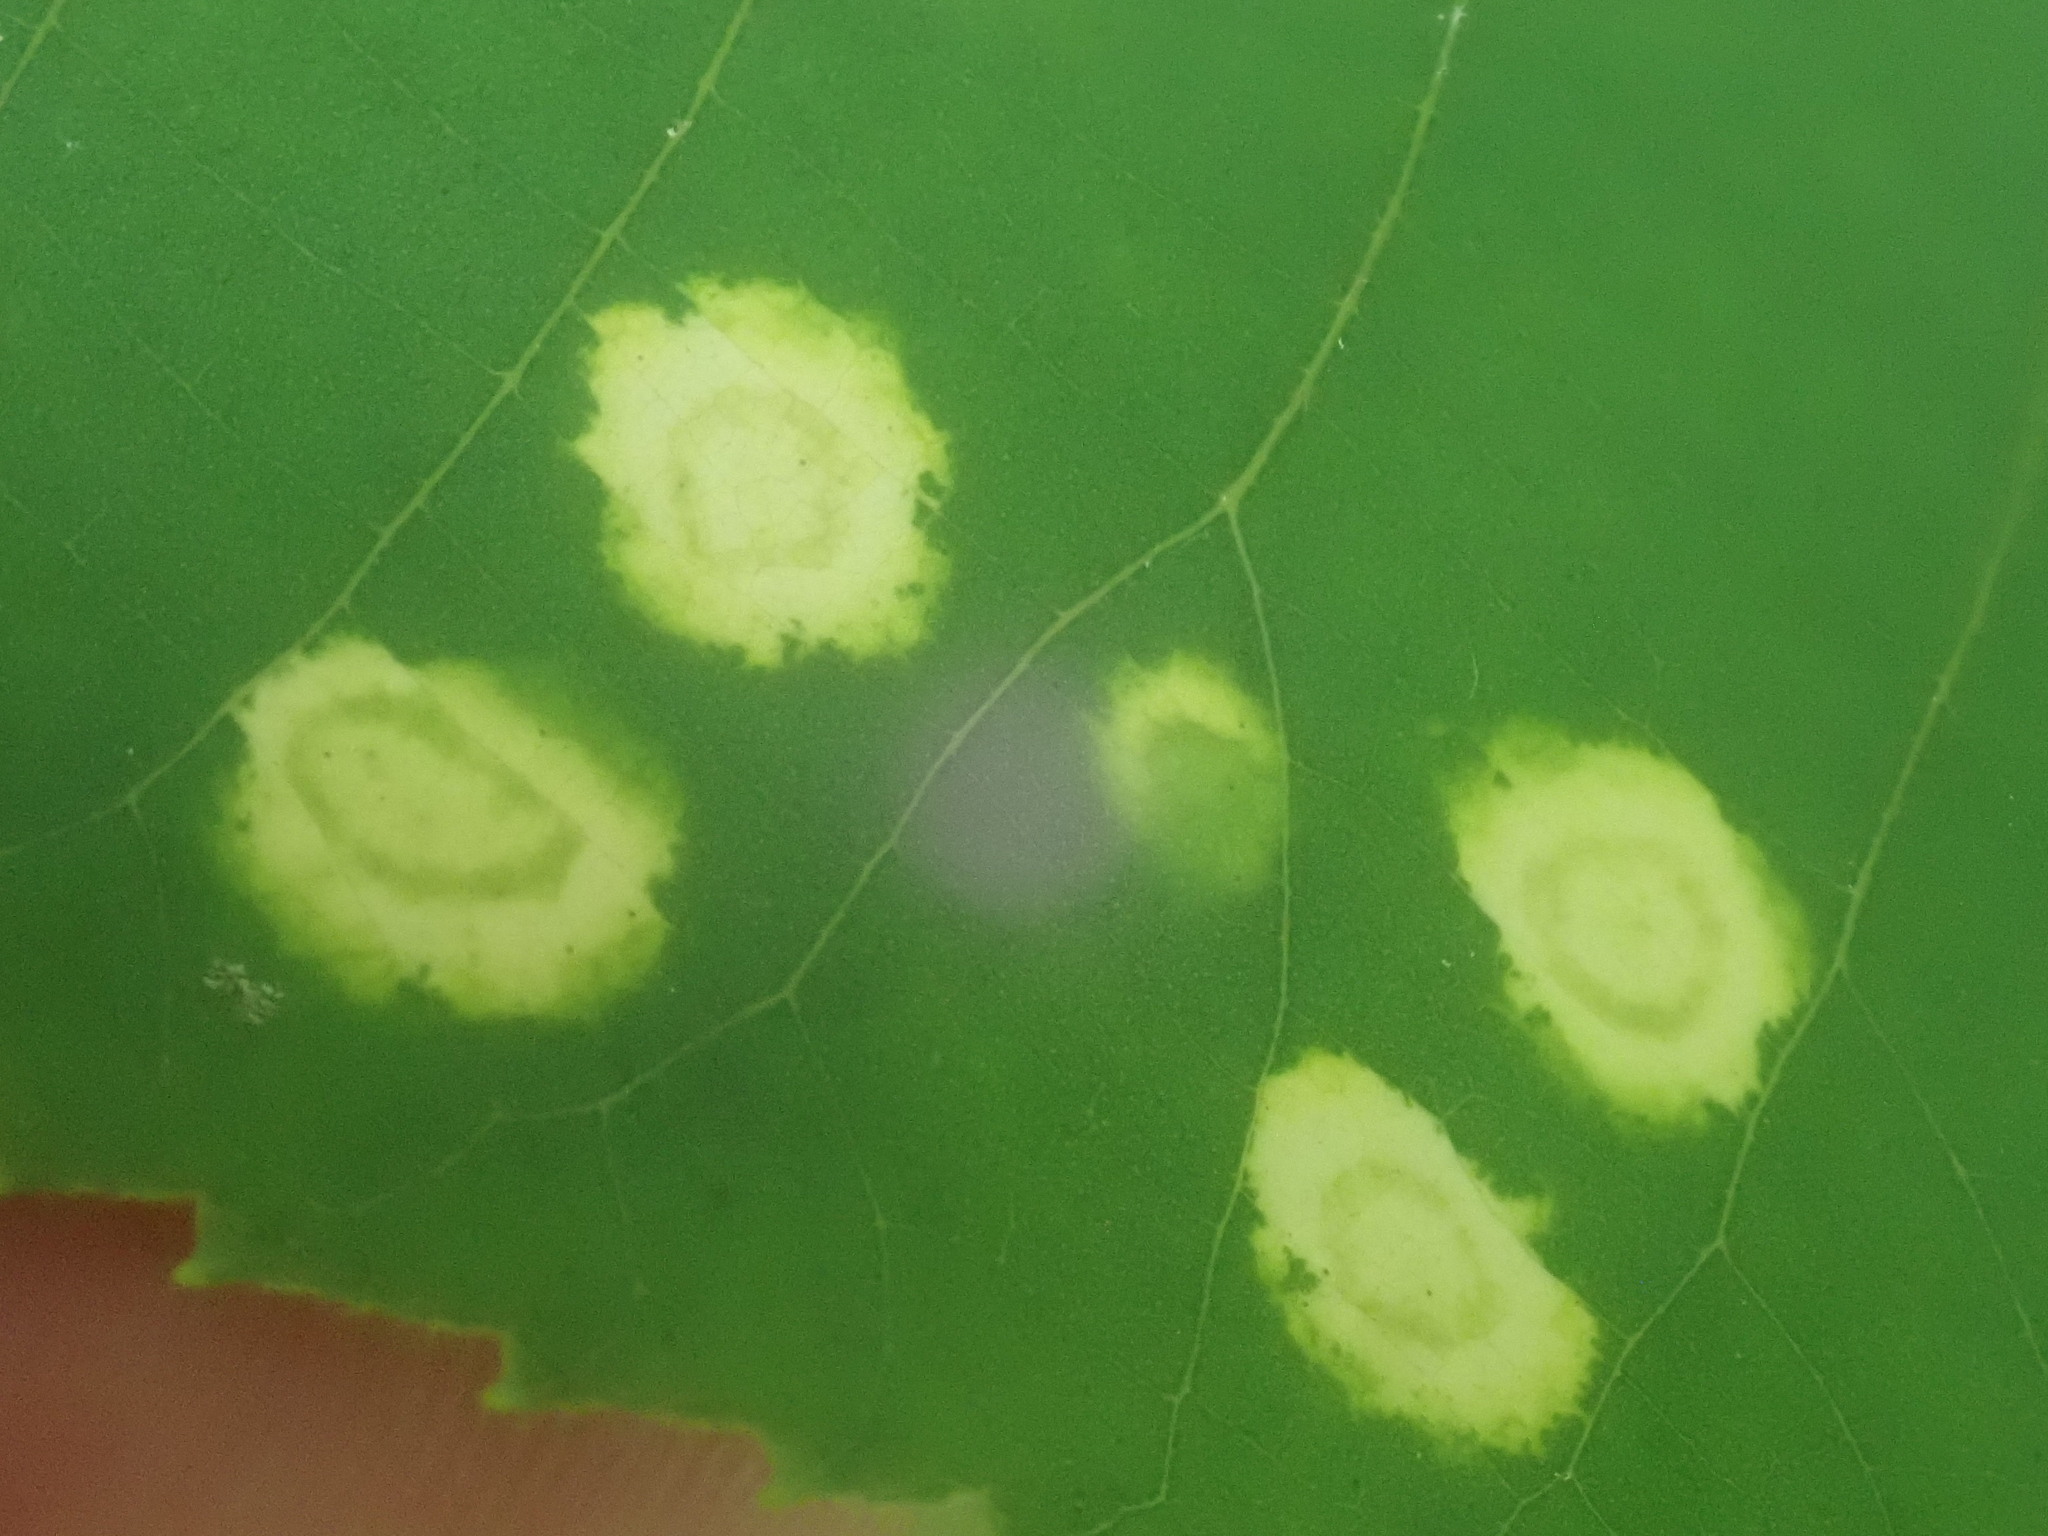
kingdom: Animalia
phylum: Arthropoda
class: Insecta
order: Diptera
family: Cecidomyiidae
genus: Gliaspilota
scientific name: Gliaspilota glutinosa
